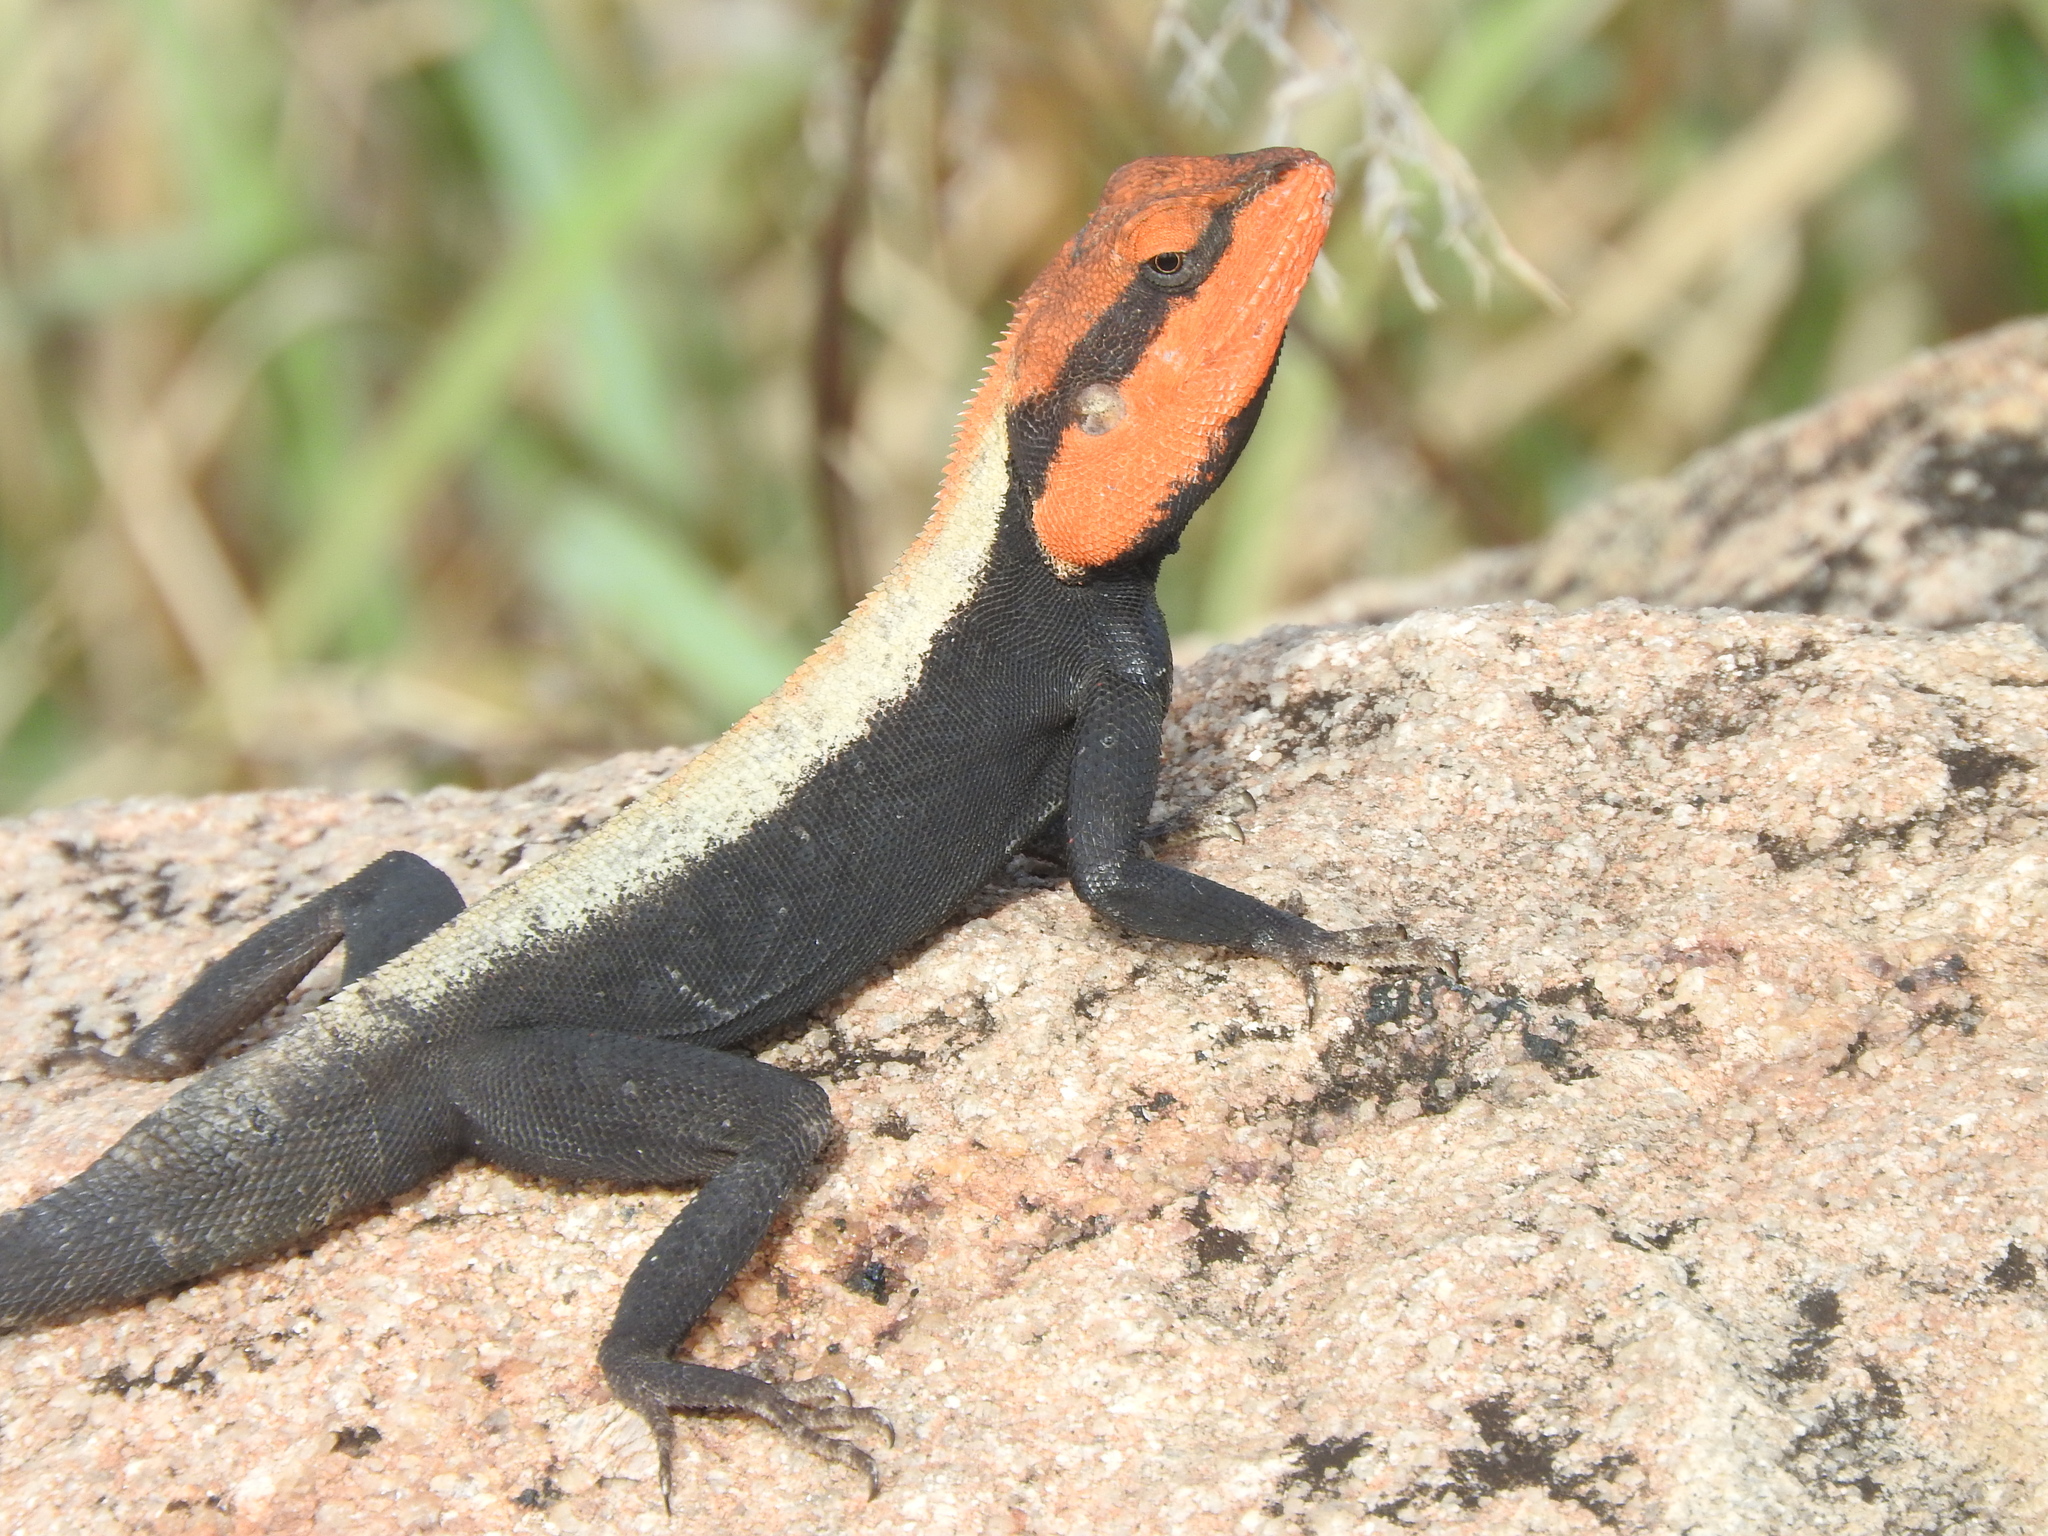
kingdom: Animalia
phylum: Chordata
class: Squamata
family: Agamidae
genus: Psammophilus
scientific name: Psammophilus dorsalis
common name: South indian rock agama
